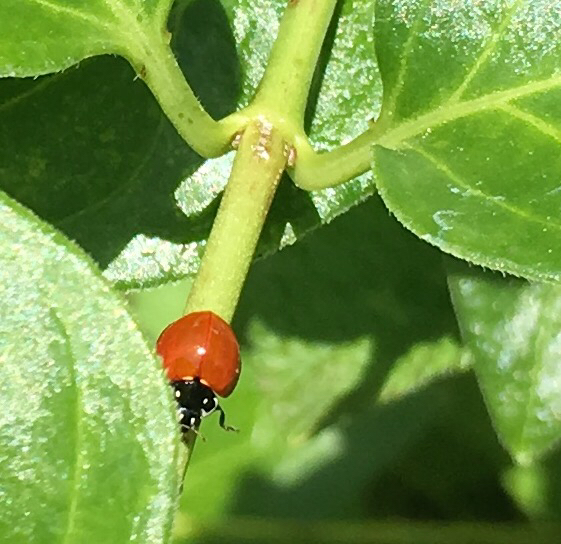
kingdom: Animalia
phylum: Arthropoda
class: Insecta
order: Coleoptera
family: Coccinellidae
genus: Cycloneda
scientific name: Cycloneda sanguinea
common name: Ladybird beetle
